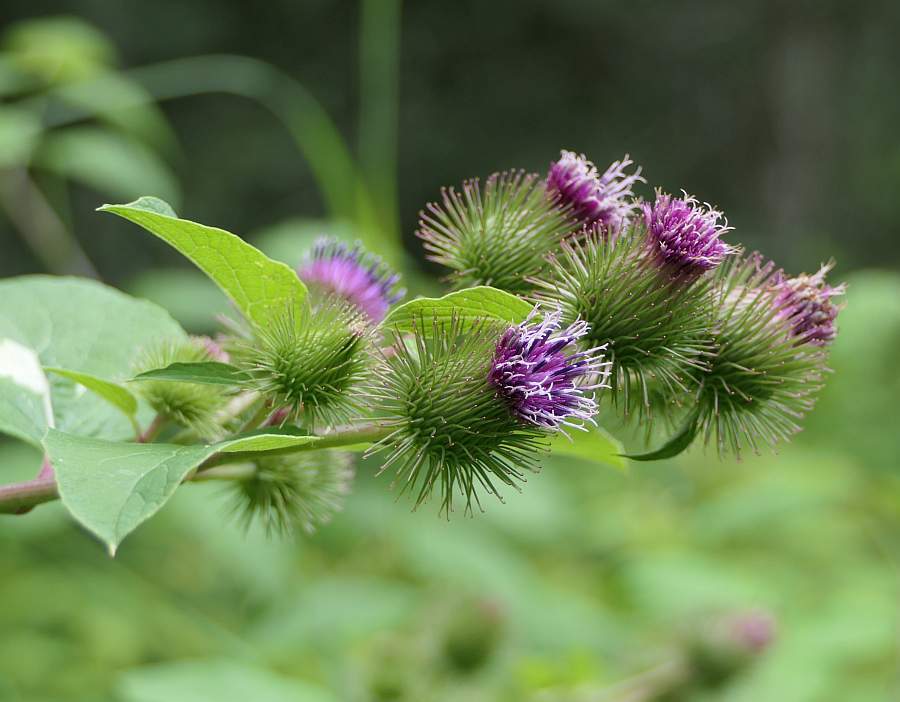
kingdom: Plantae
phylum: Tracheophyta
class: Magnoliopsida
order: Asterales
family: Asteraceae
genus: Arctium
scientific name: Arctium minus
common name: Lesser burdock
